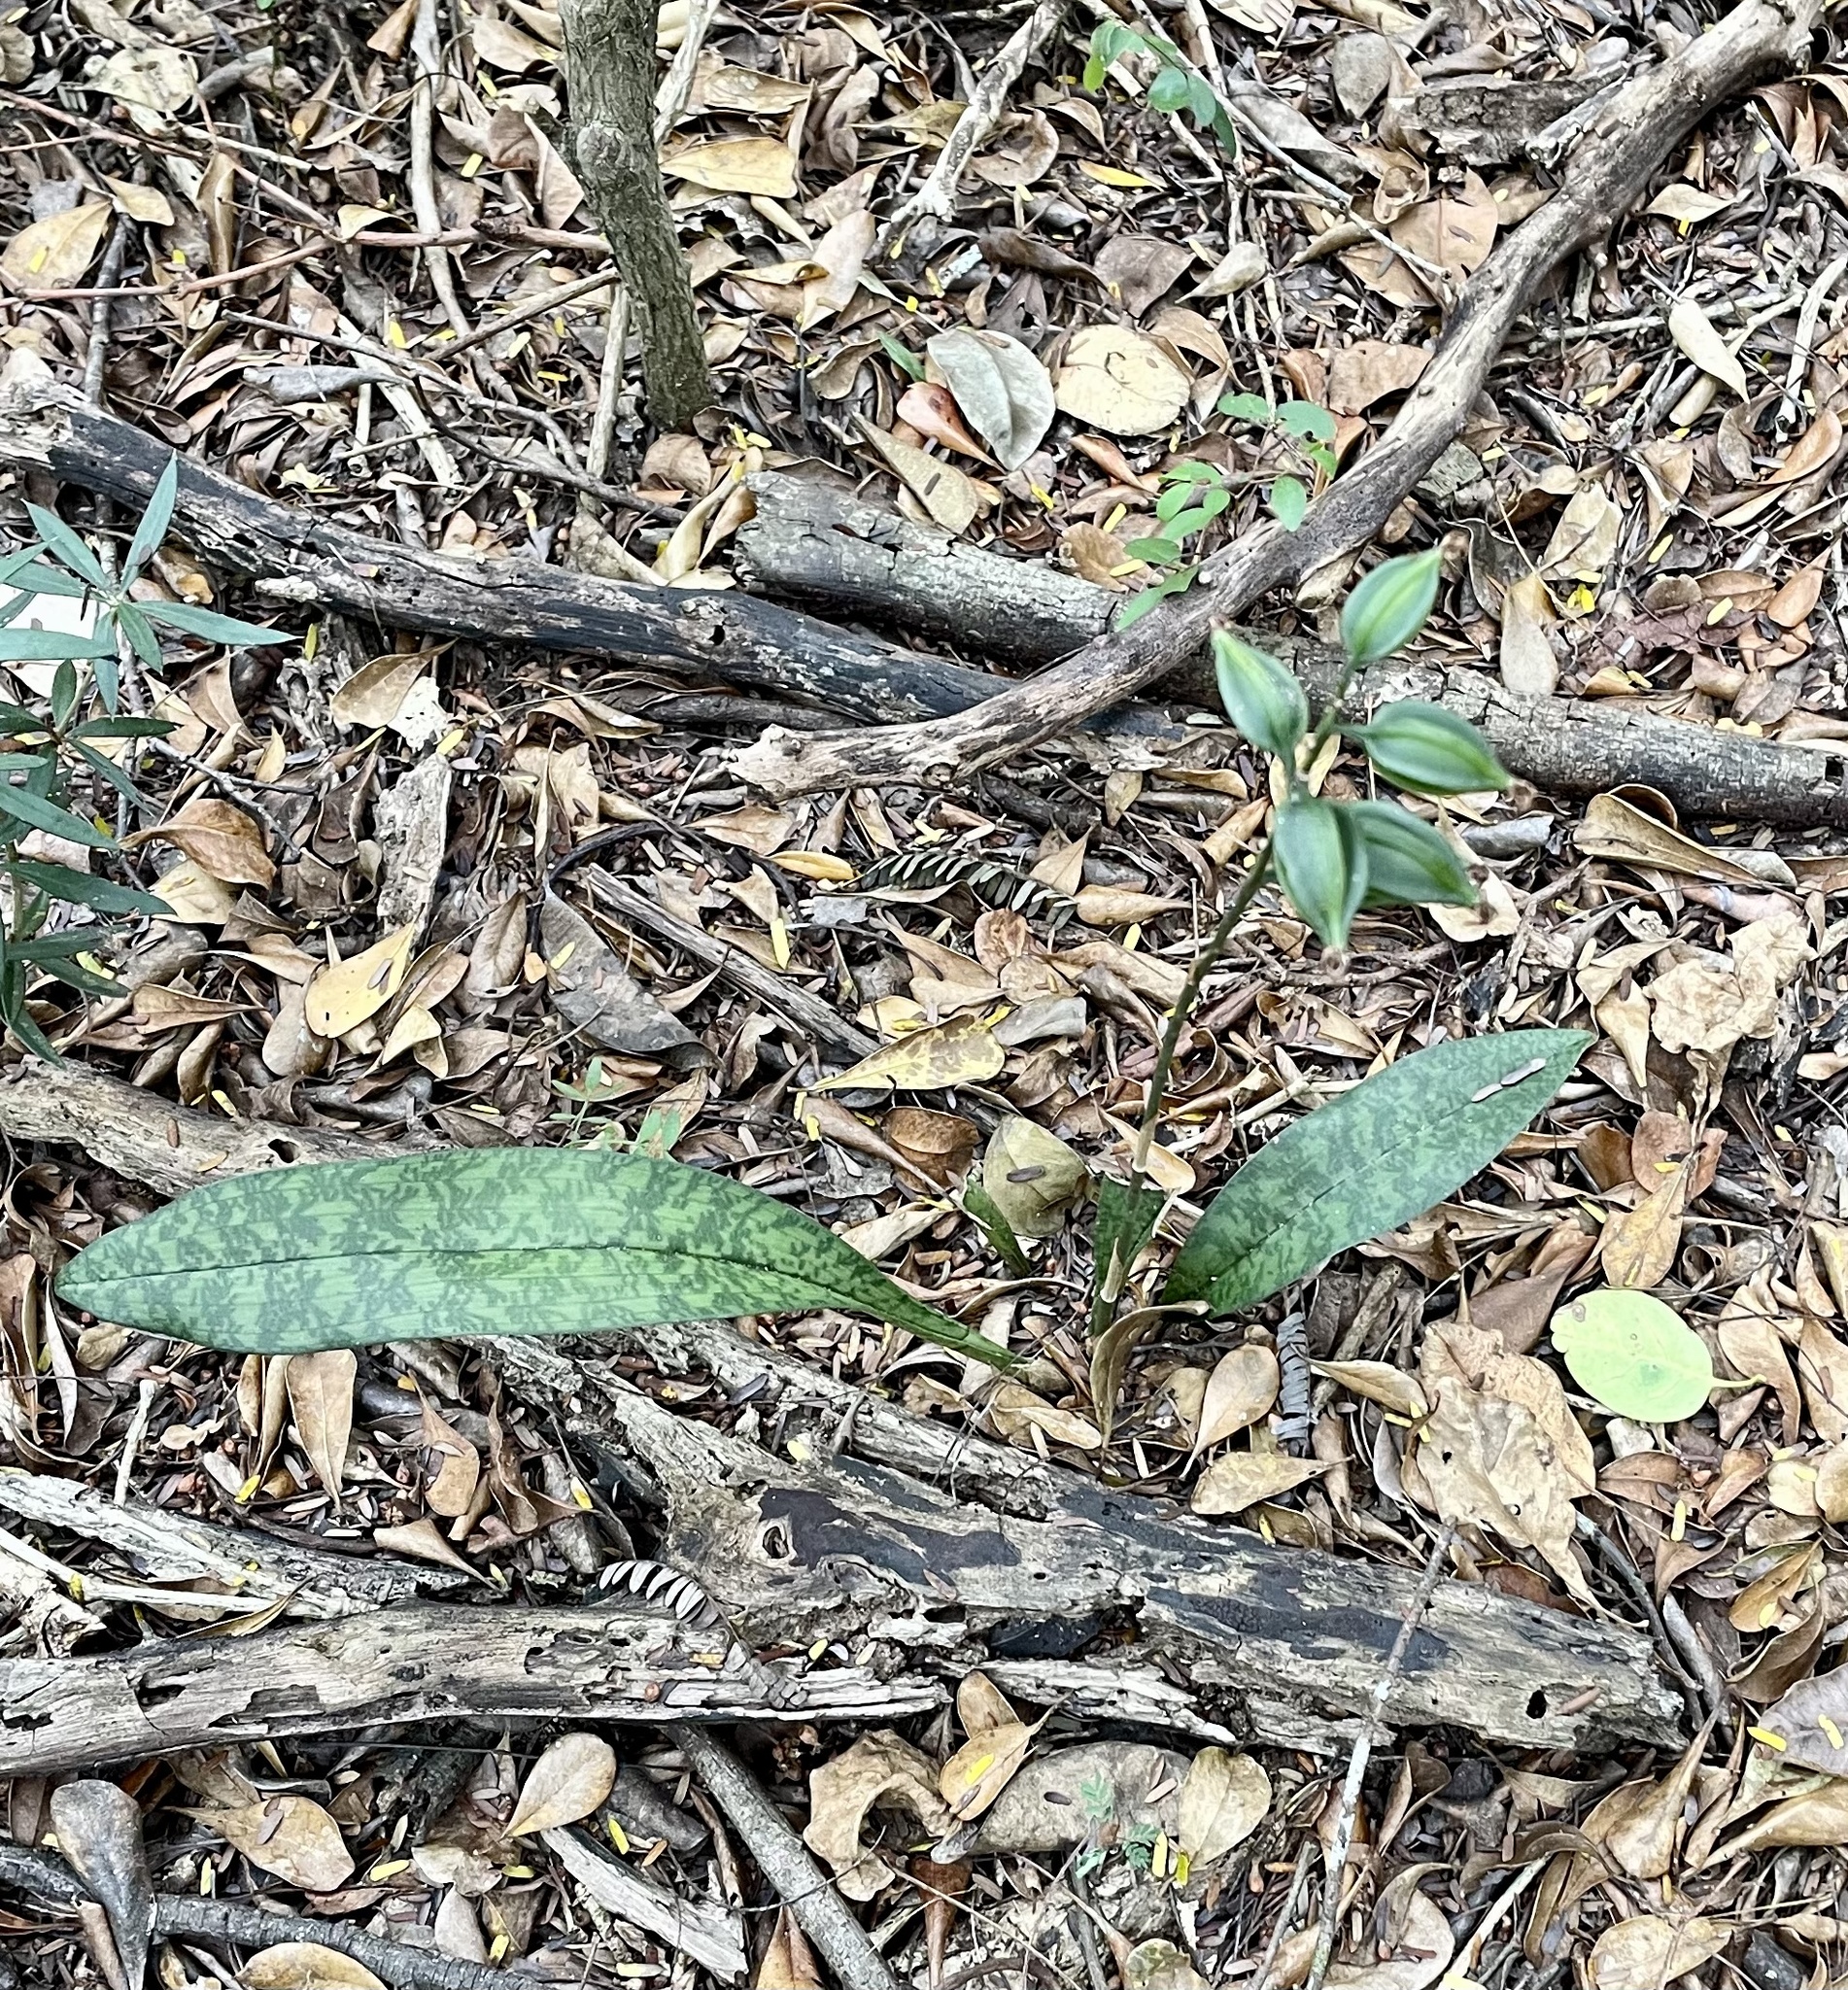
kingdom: Plantae
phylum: Tracheophyta
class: Liliopsida
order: Asparagales
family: Orchidaceae
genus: Eulophia
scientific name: Eulophia maculata
